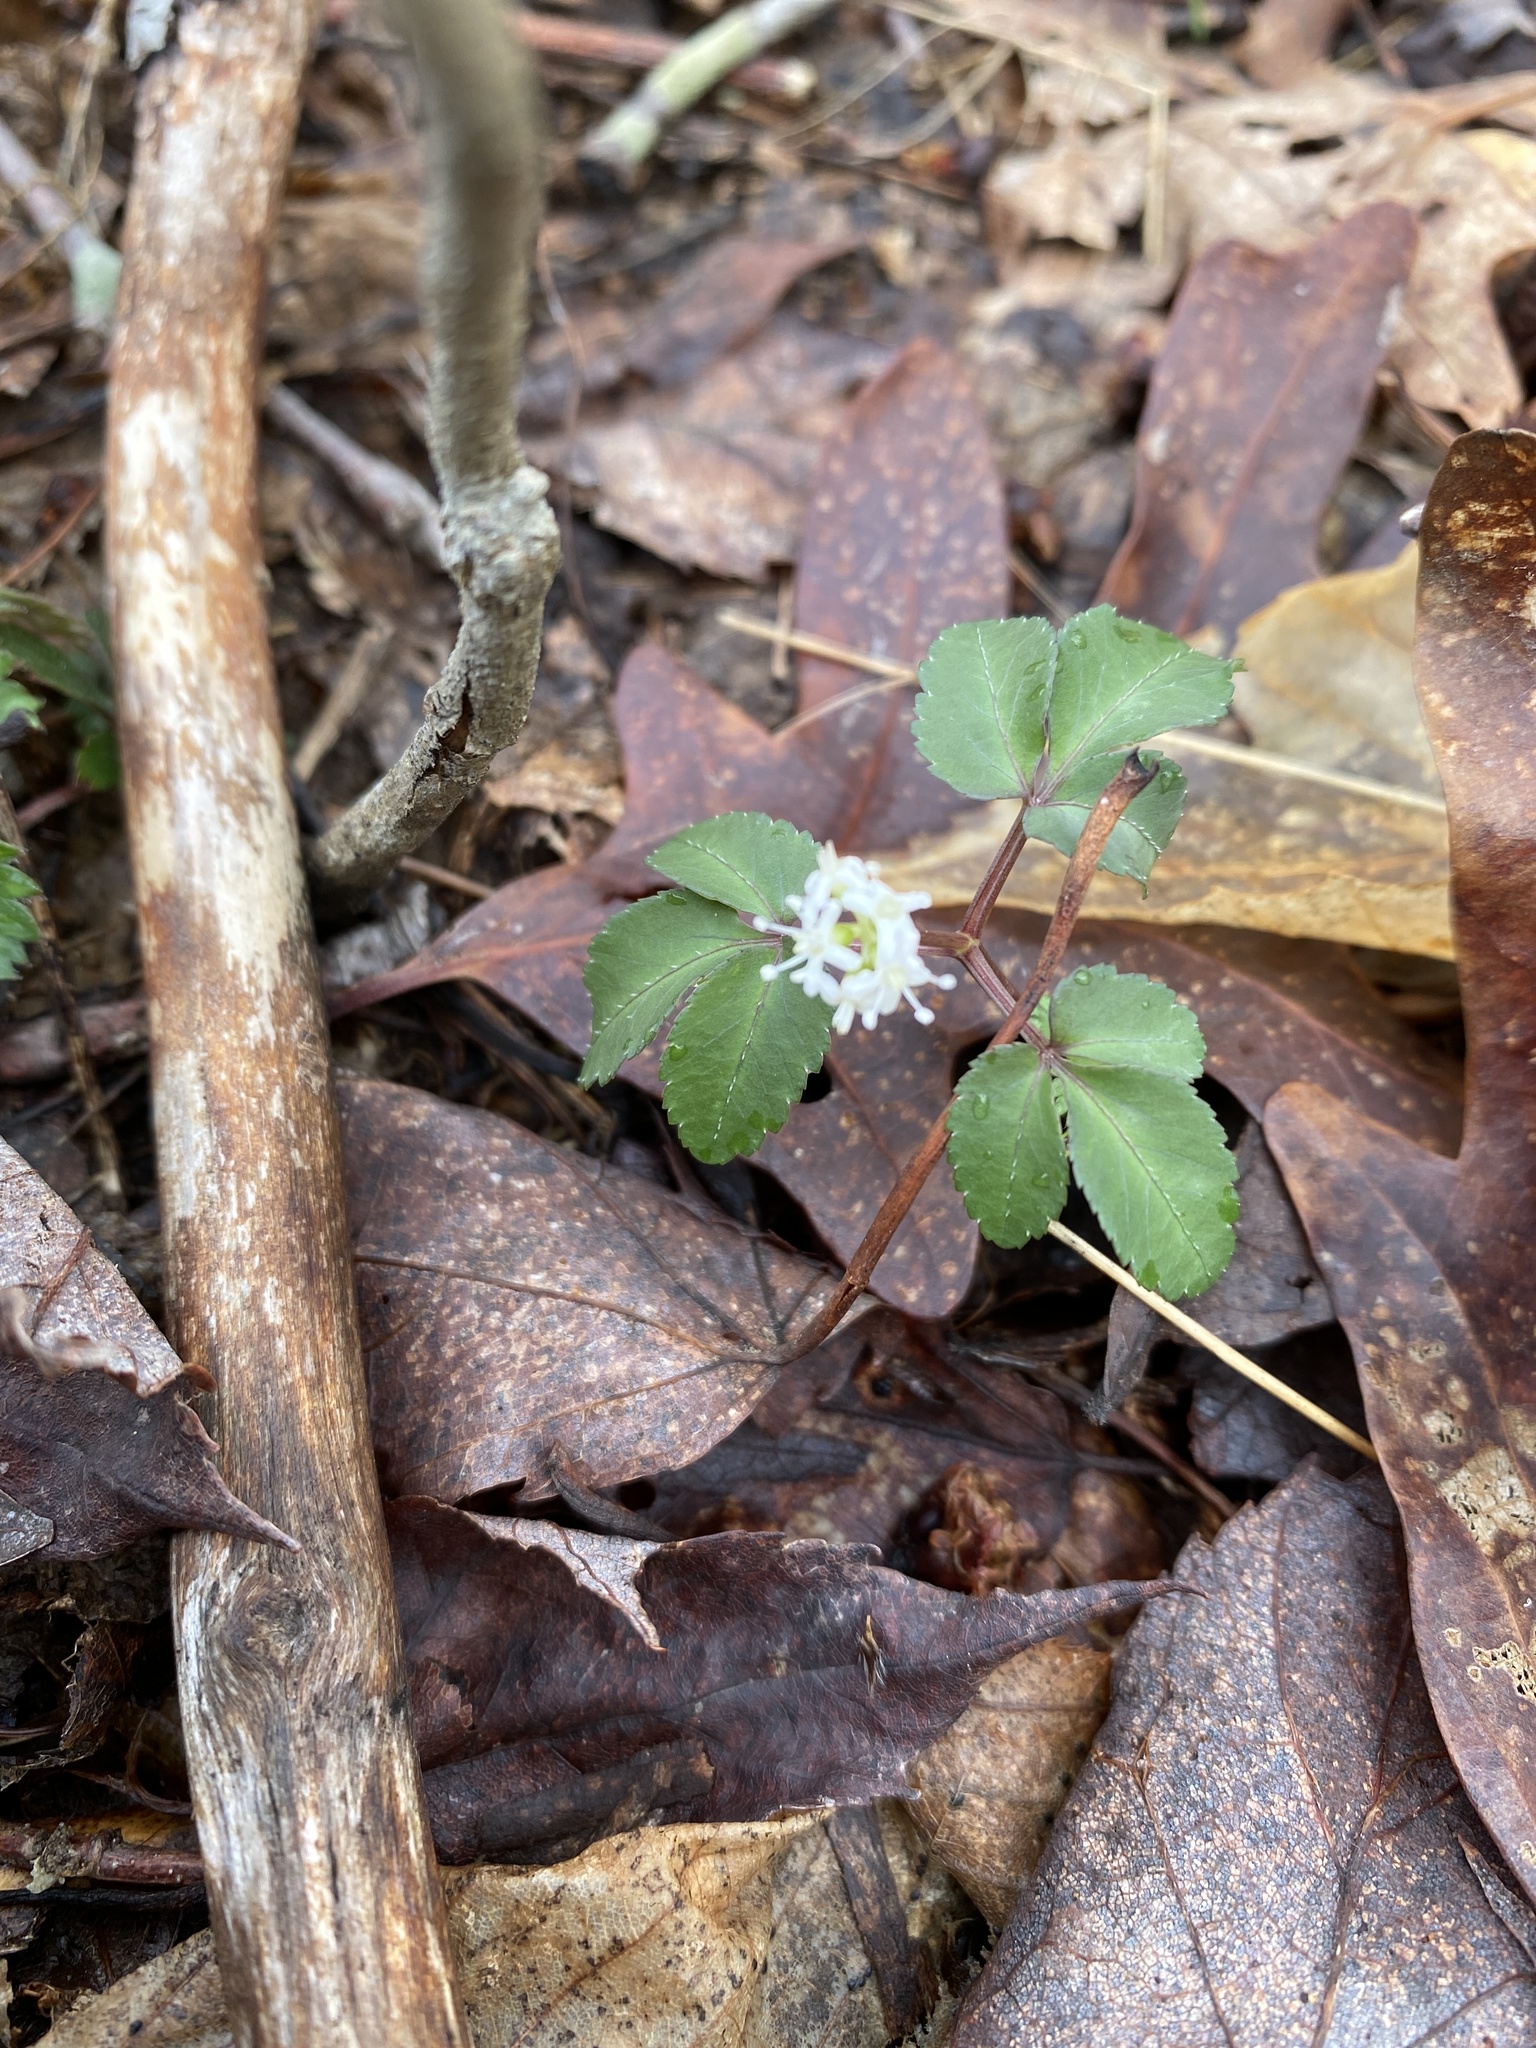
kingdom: Plantae
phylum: Tracheophyta
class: Magnoliopsida
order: Apiales
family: Araliaceae
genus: Panax
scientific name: Panax trifolius
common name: Dwarf ginseng
